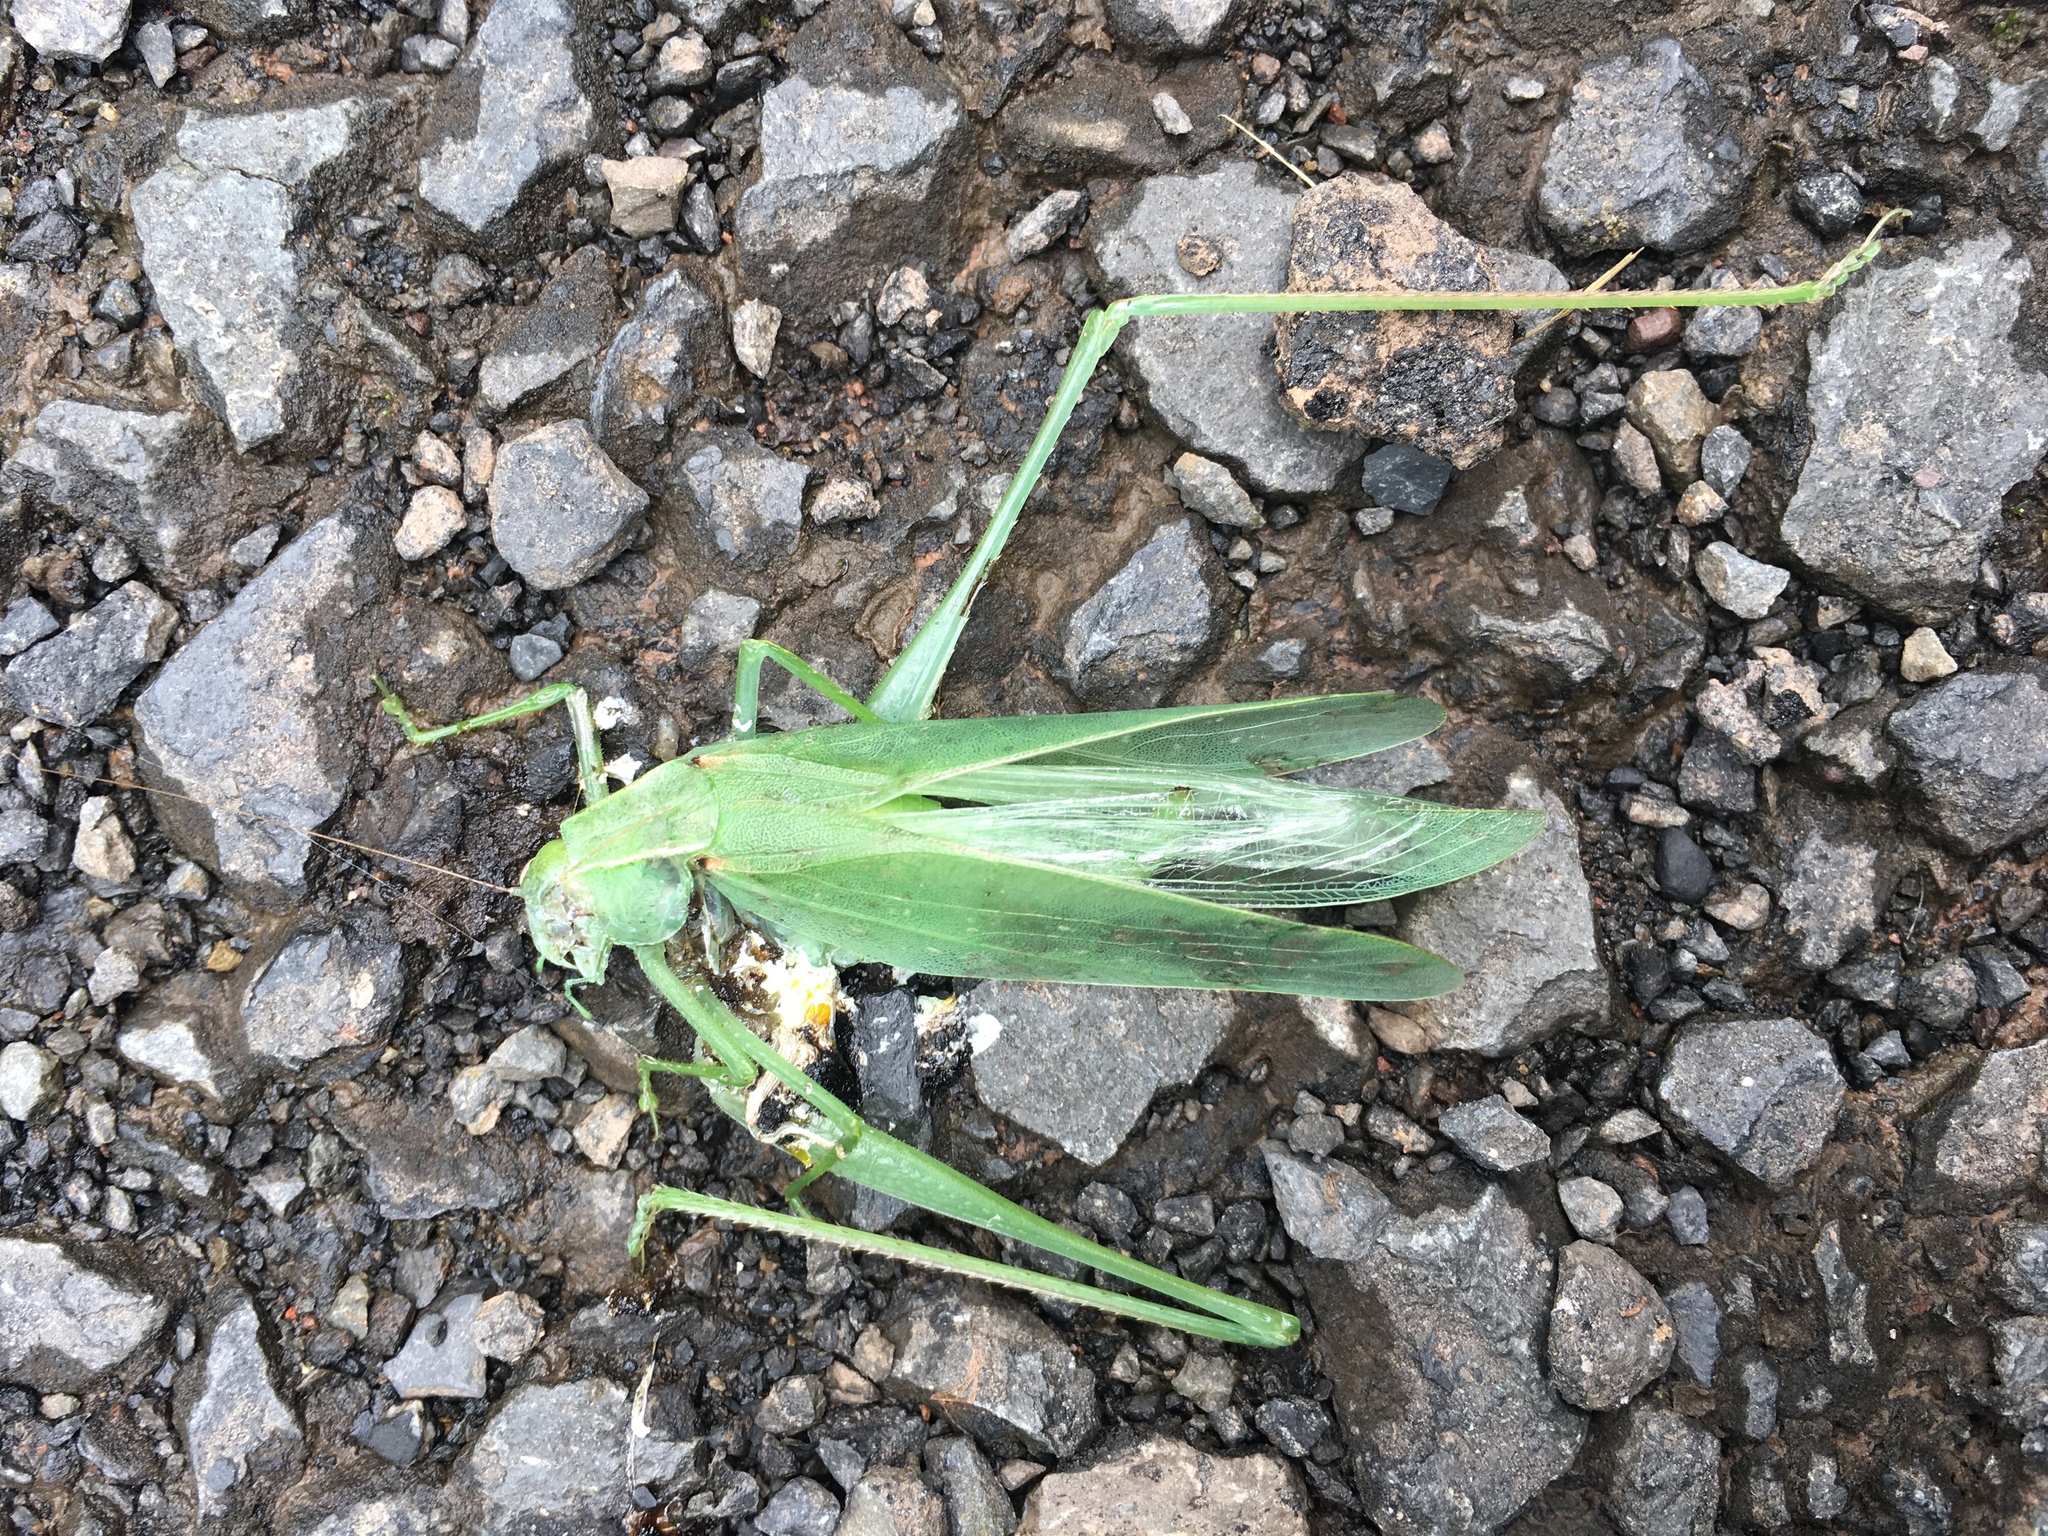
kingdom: Animalia
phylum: Arthropoda
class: Insecta
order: Orthoptera
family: Tettigoniidae
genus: Amblycorypha
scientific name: Amblycorypha
